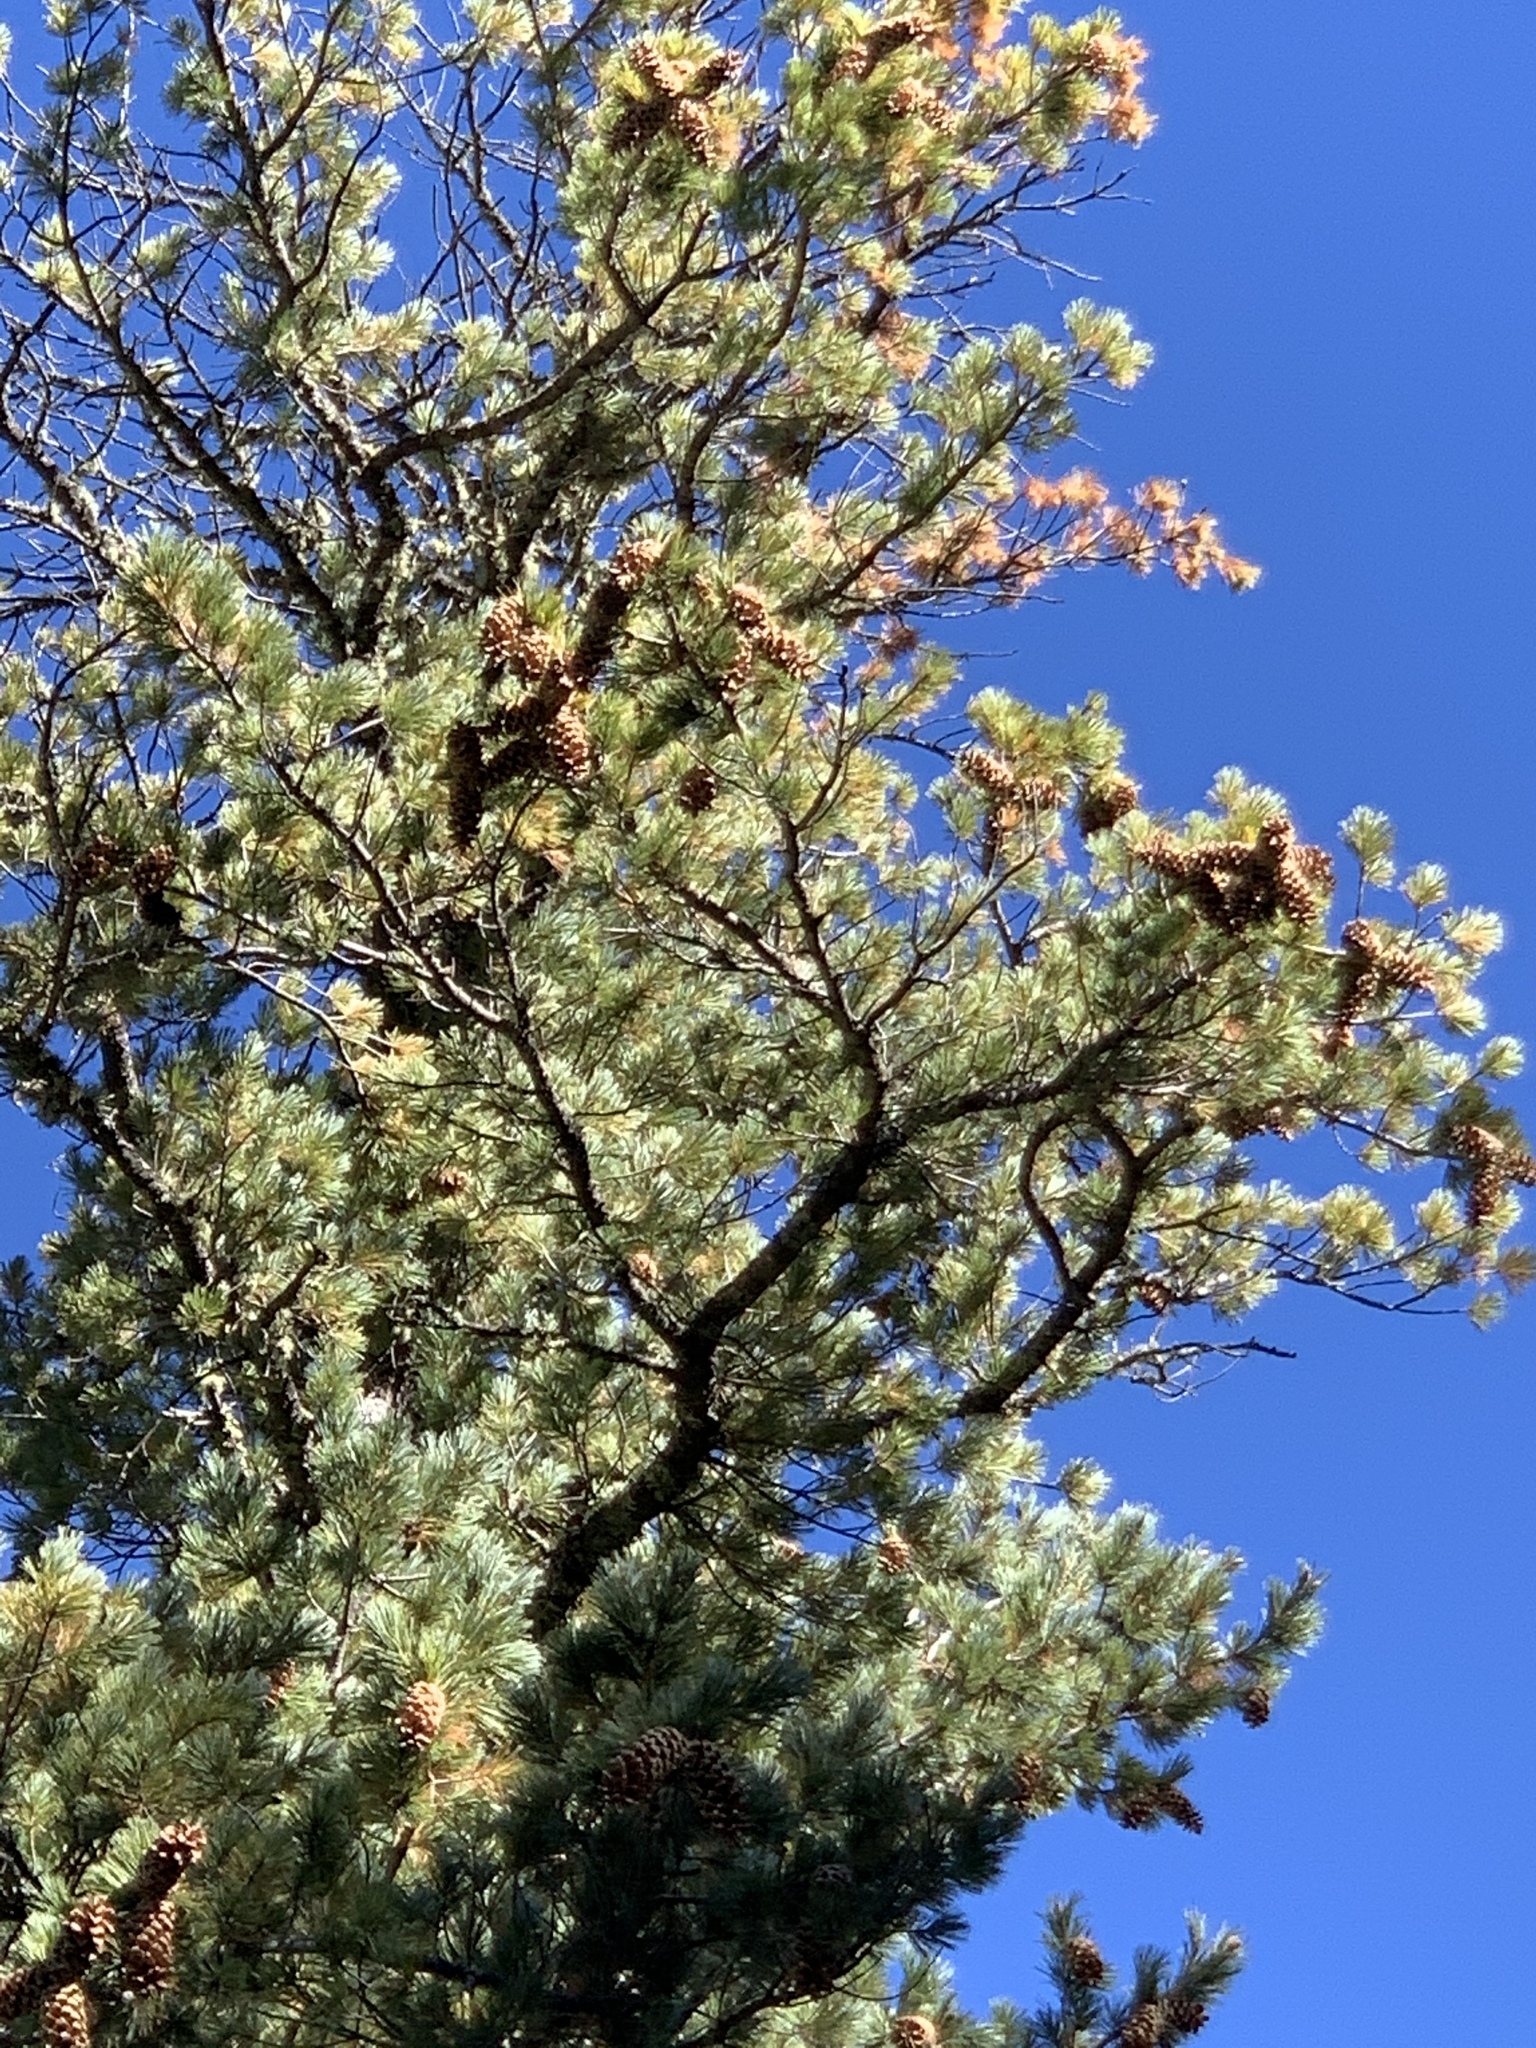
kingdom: Plantae
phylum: Tracheophyta
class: Pinopsida
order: Pinales
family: Pinaceae
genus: Pinus
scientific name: Pinus strobiformis
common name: Southwestern white pine
